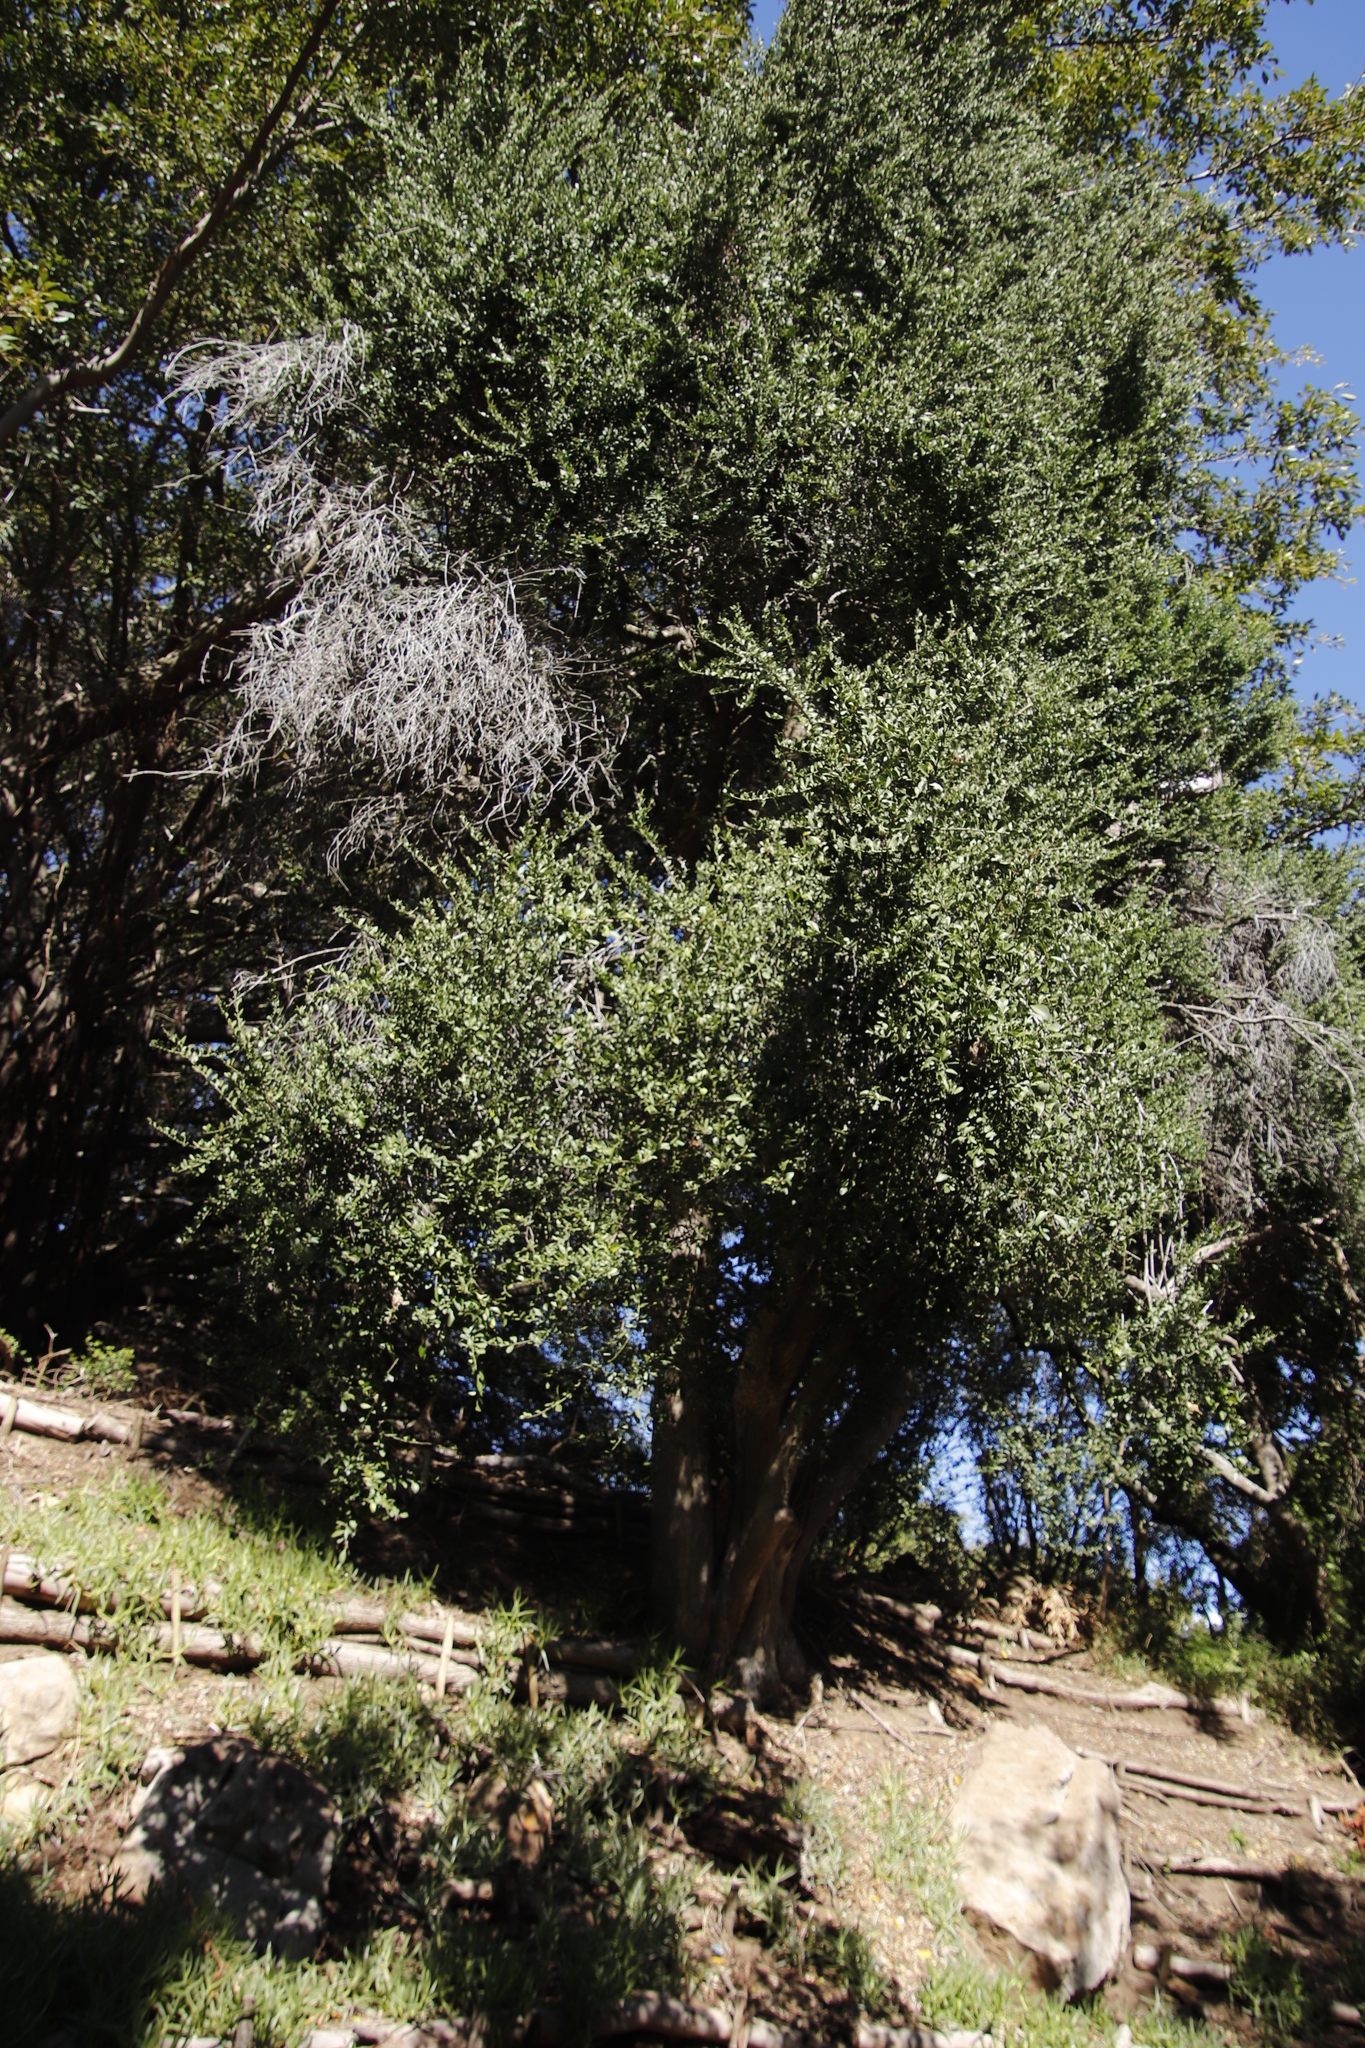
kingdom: Plantae
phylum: Tracheophyta
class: Magnoliopsida
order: Celastrales
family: Celastraceae
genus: Gymnosporia
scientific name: Gymnosporia buxifolia
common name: Common spike-thorn
